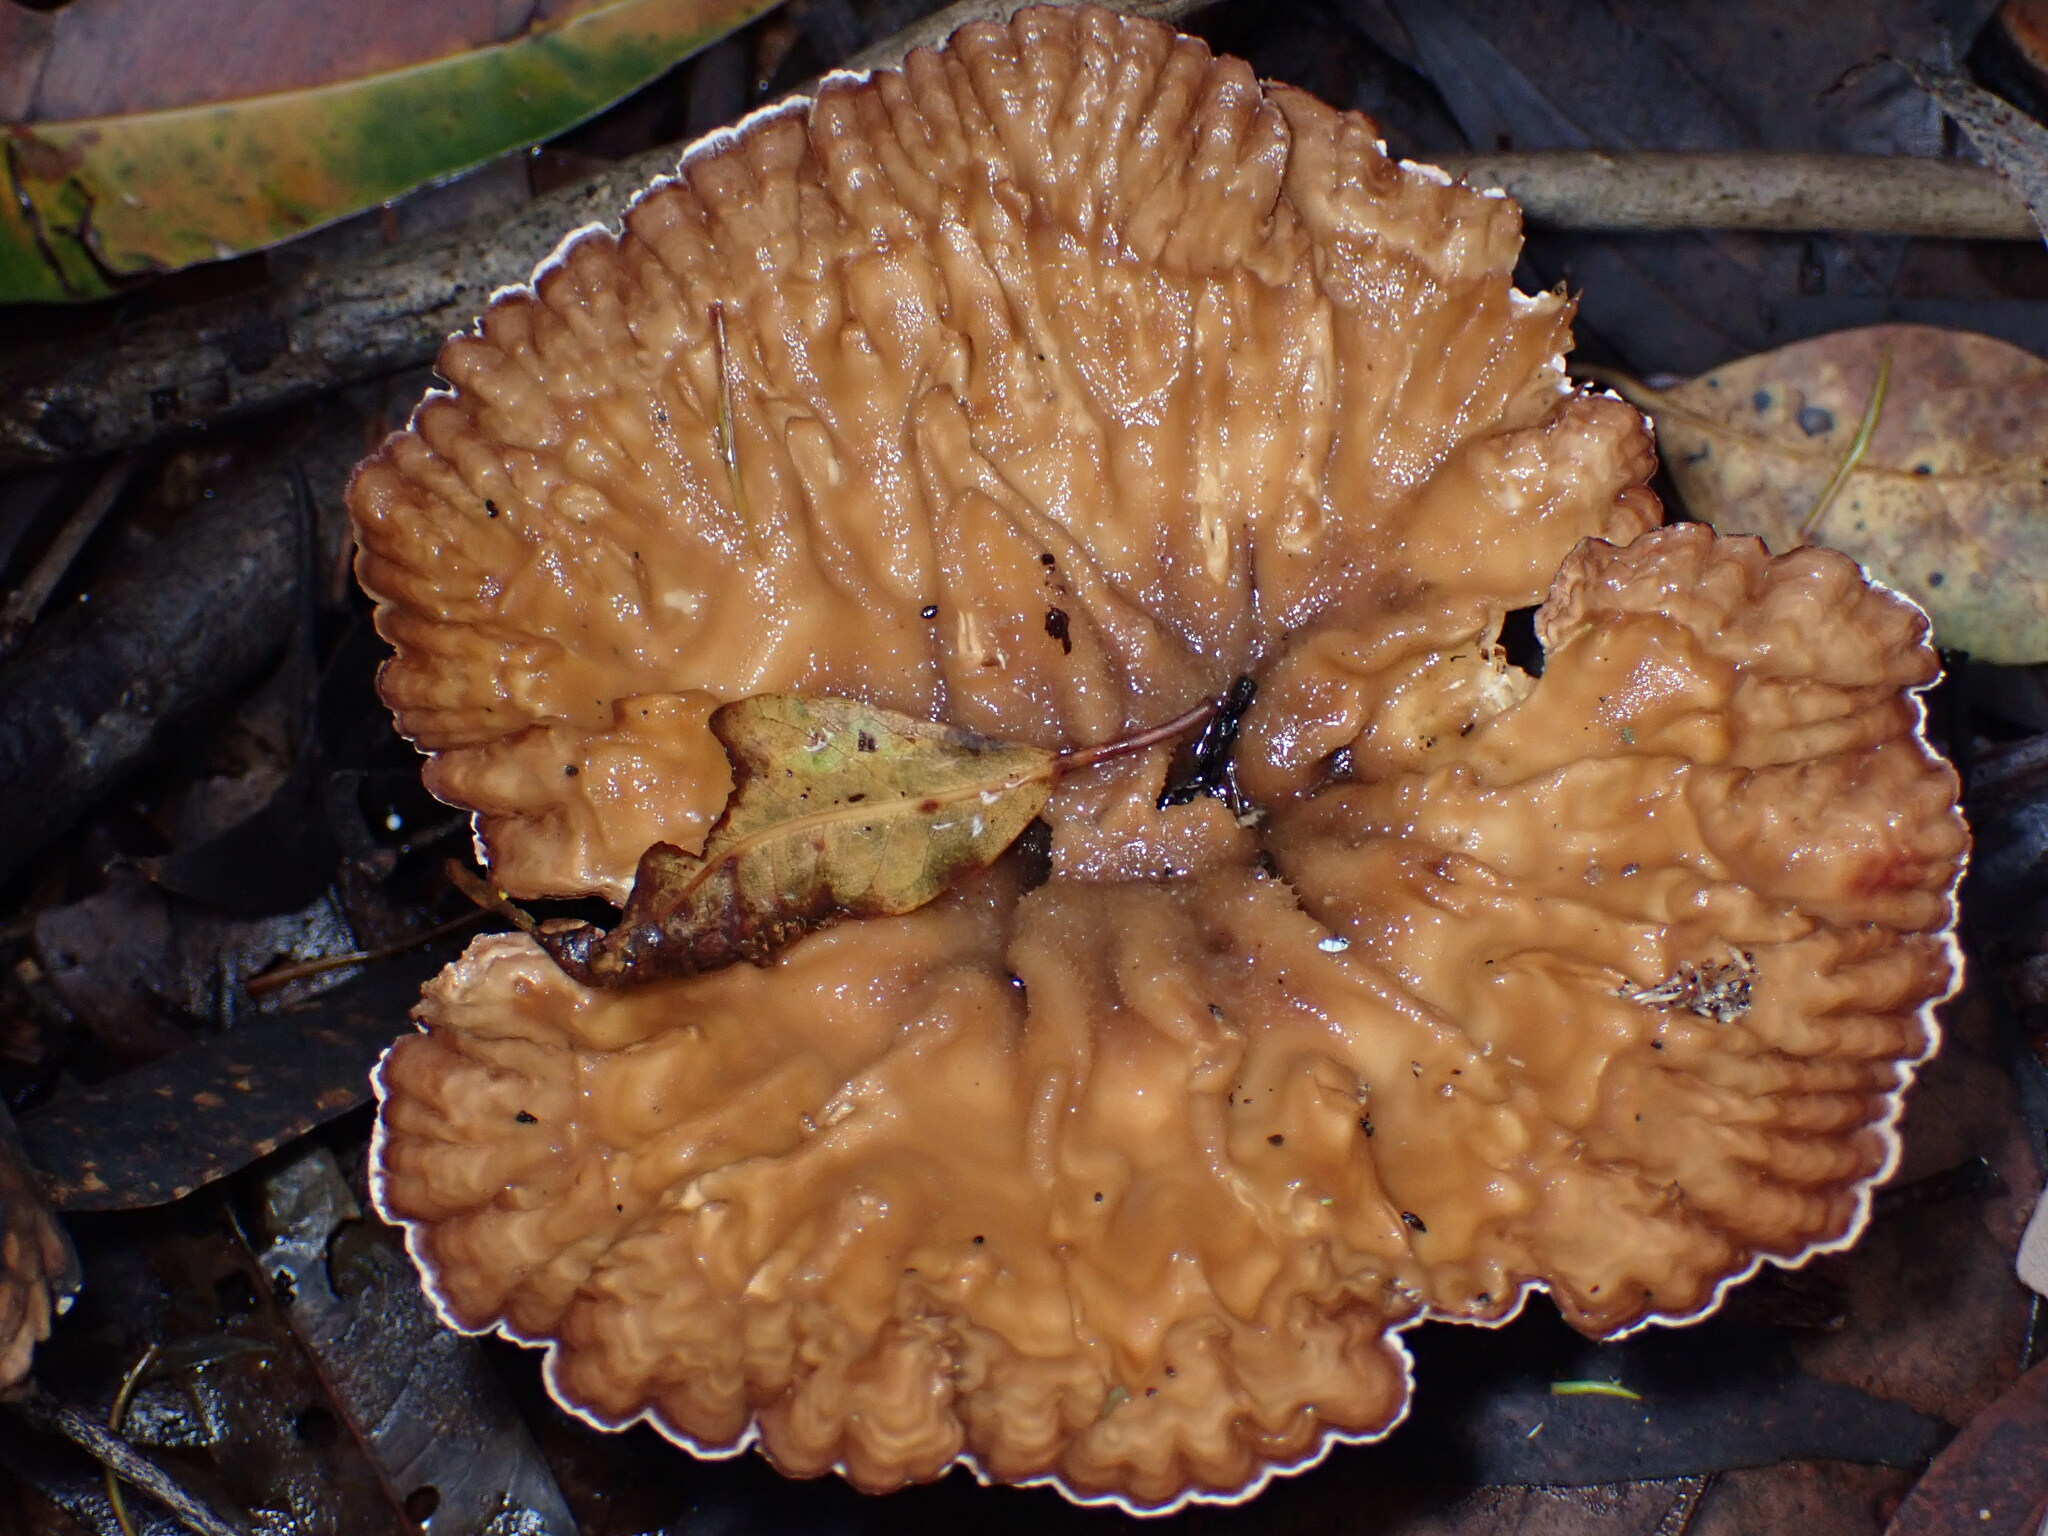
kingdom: Fungi
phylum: Basidiomycota
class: Agaricomycetes
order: Polyporales
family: Panaceae
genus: Cymatoderma
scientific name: Cymatoderma elegans
